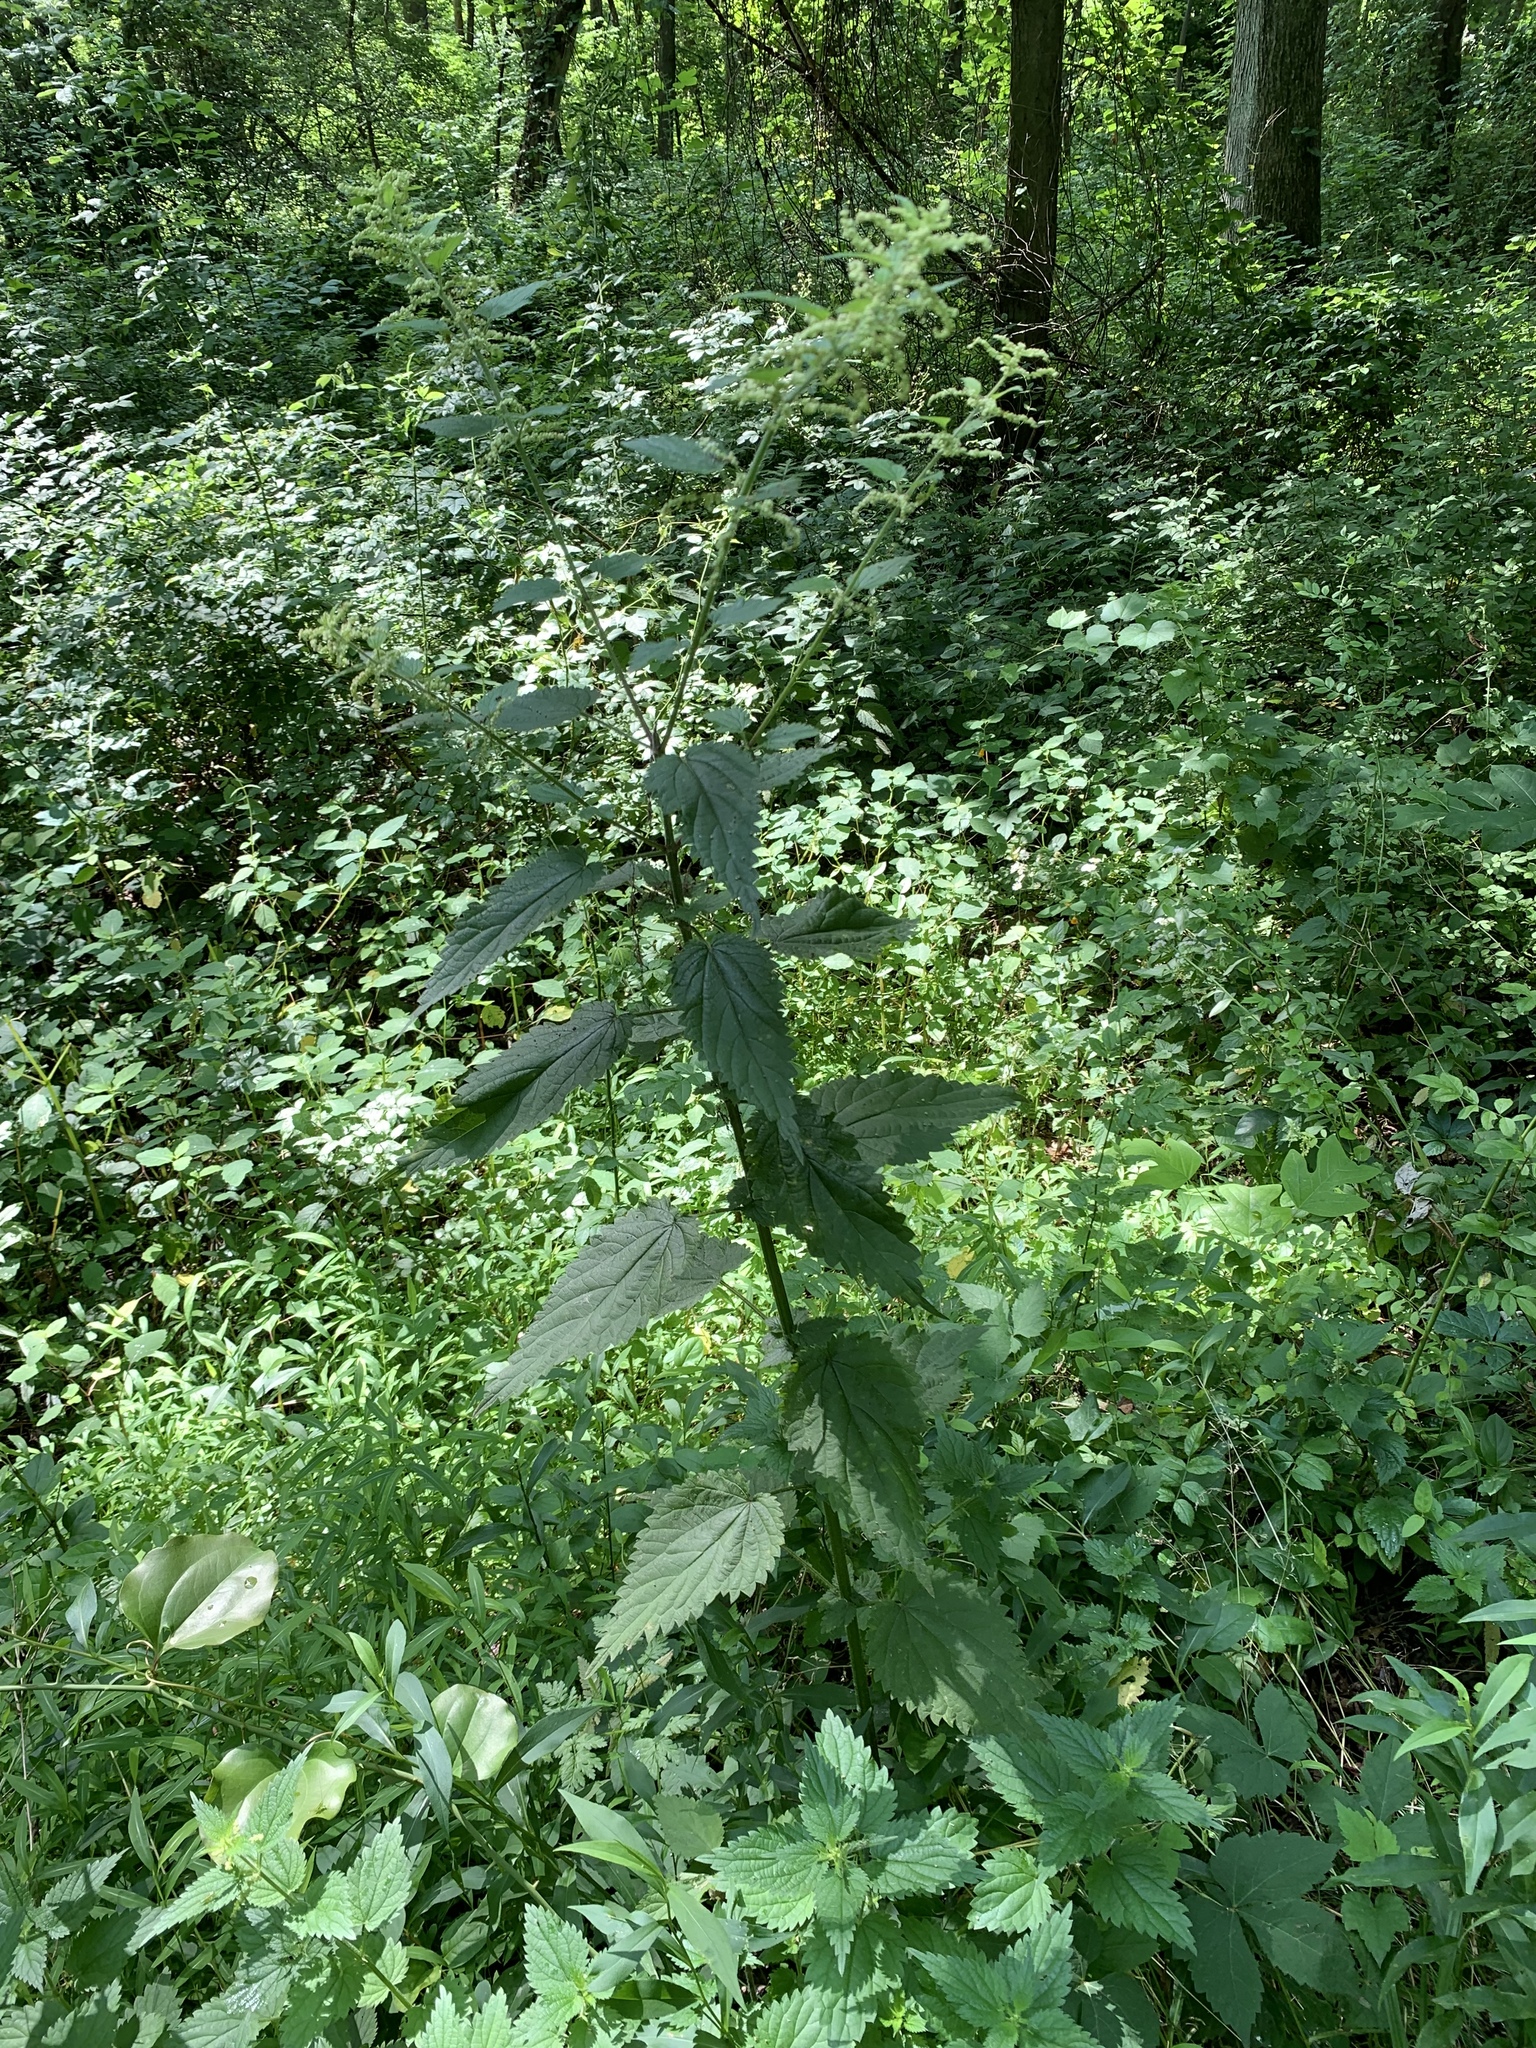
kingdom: Plantae
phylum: Tracheophyta
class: Magnoliopsida
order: Rosales
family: Urticaceae
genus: Urtica
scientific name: Urtica dioica
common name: Common nettle
